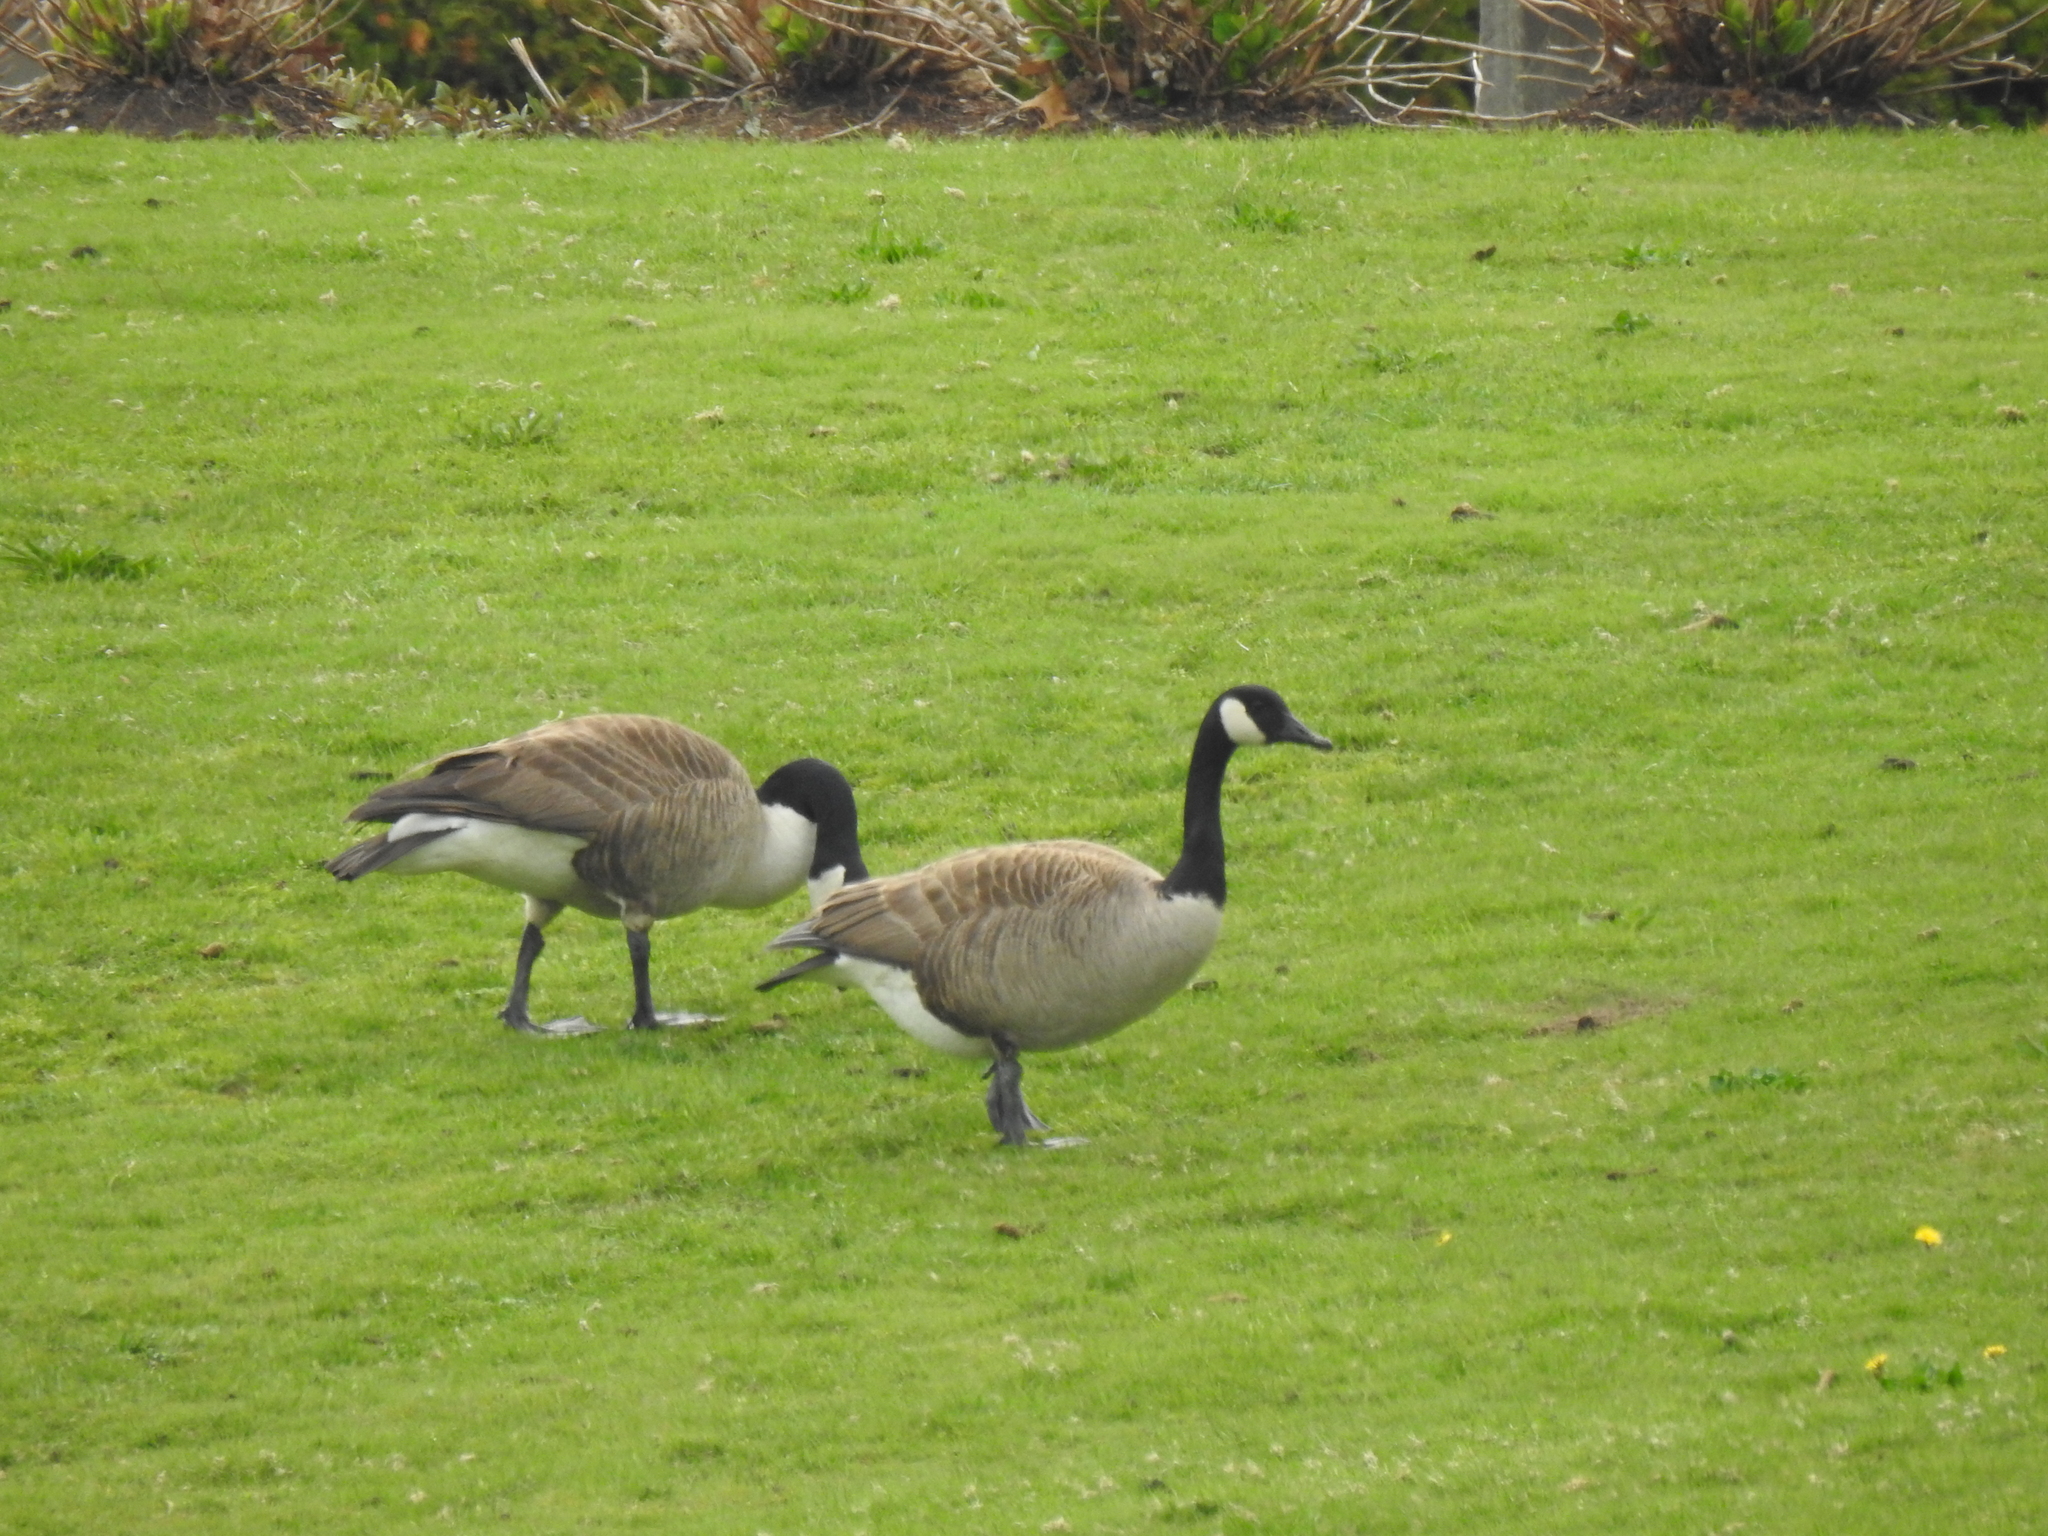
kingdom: Animalia
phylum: Chordata
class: Aves
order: Anseriformes
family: Anatidae
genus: Branta
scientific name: Branta canadensis
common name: Canada goose
